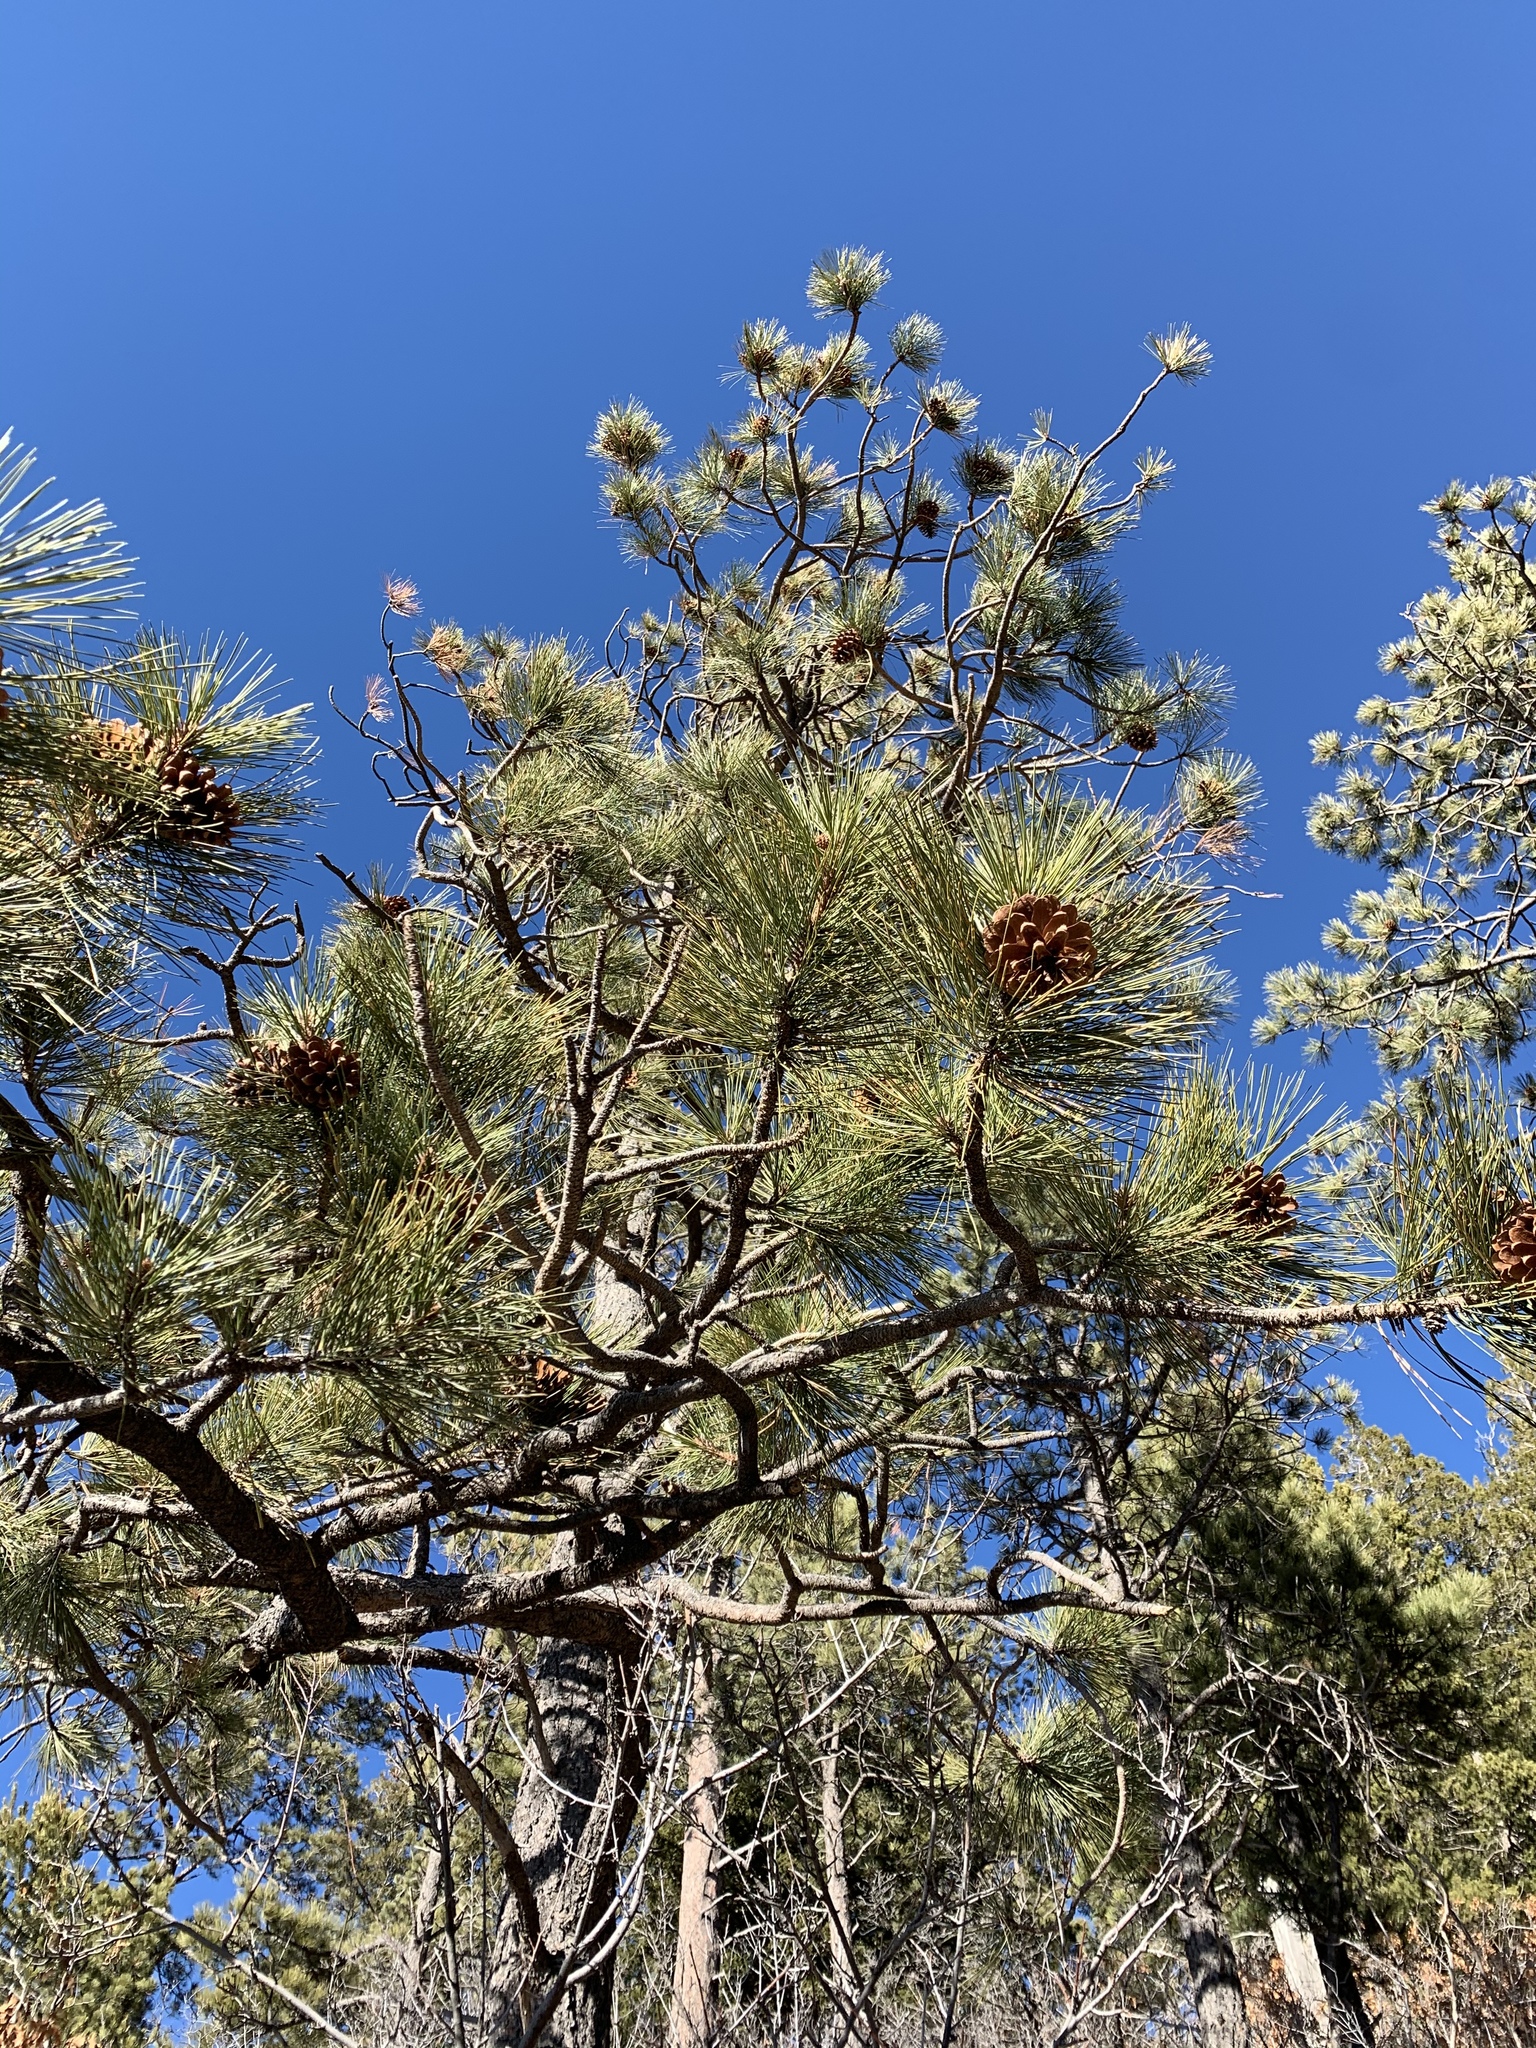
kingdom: Plantae
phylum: Tracheophyta
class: Pinopsida
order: Pinales
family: Pinaceae
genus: Pinus
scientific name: Pinus ponderosa
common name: Western yellow-pine
